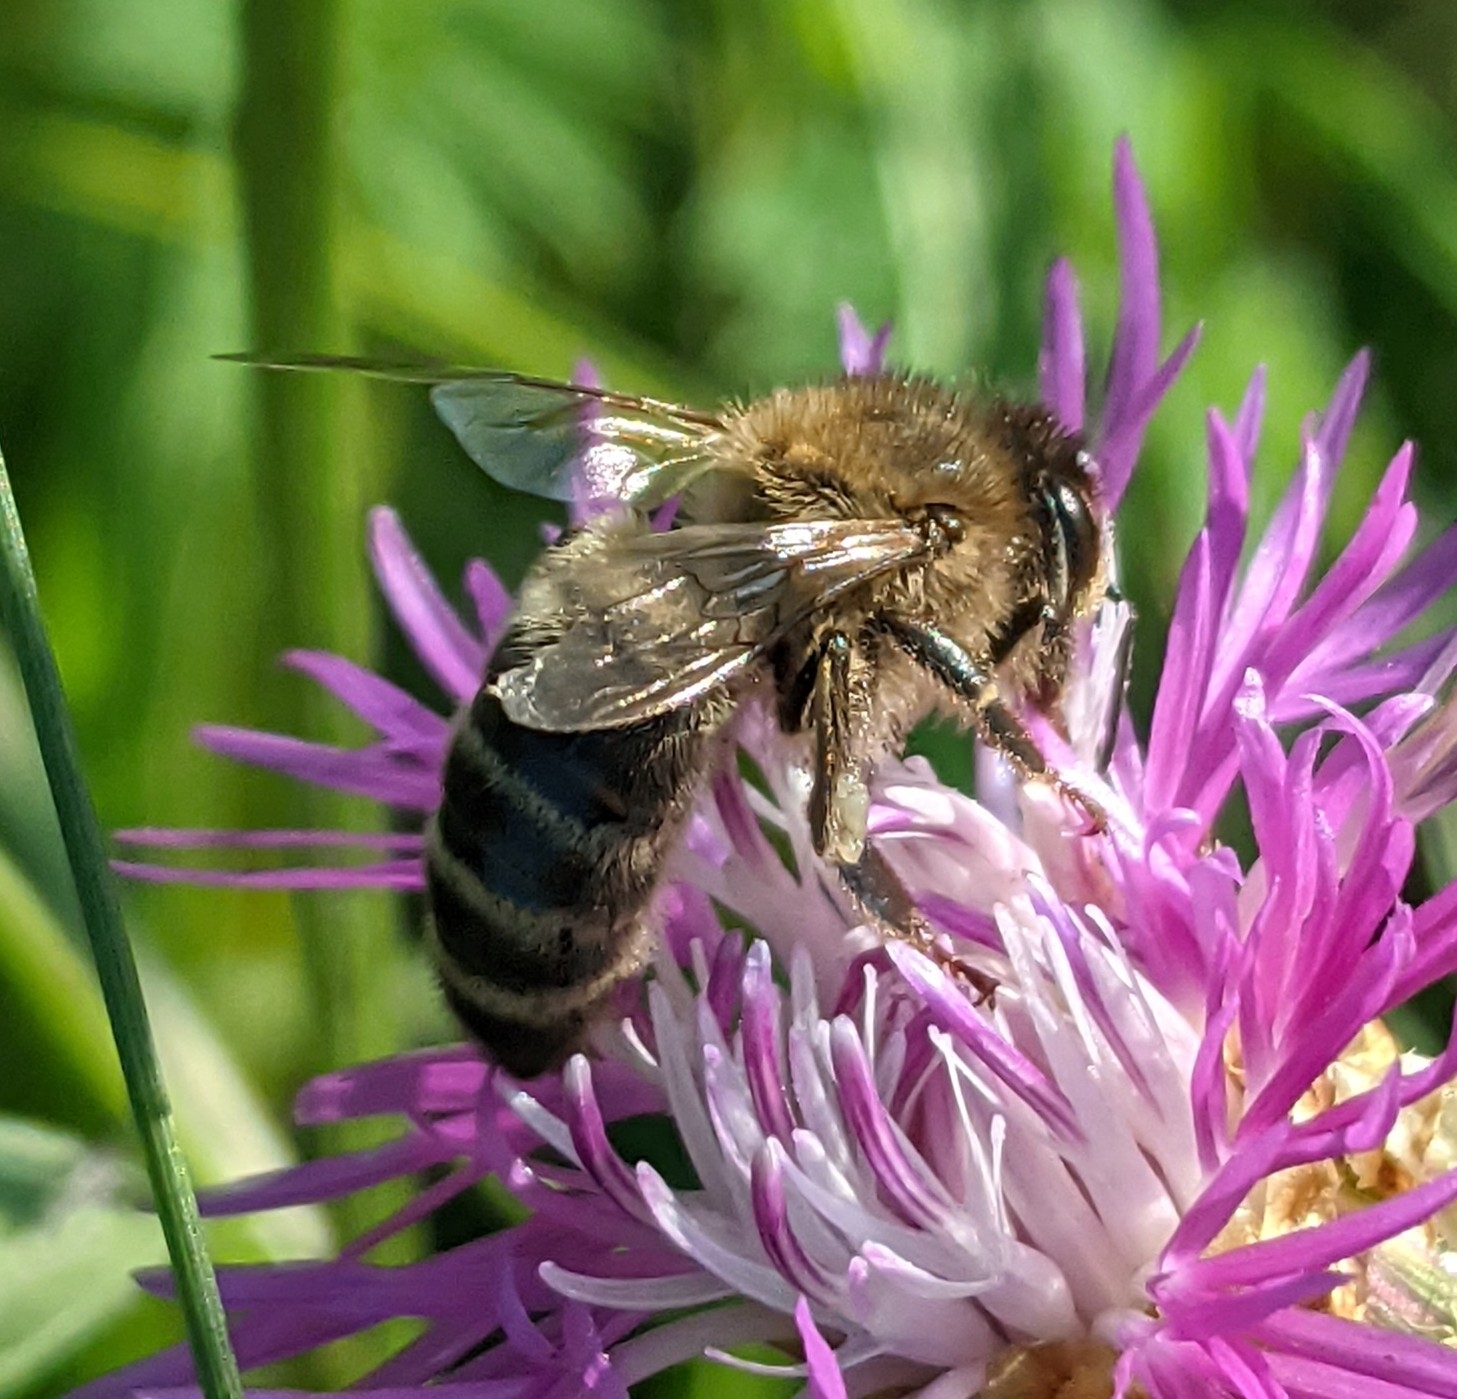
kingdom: Animalia
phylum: Arthropoda
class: Insecta
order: Hymenoptera
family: Apidae
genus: Apis
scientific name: Apis mellifera
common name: Honey bee
